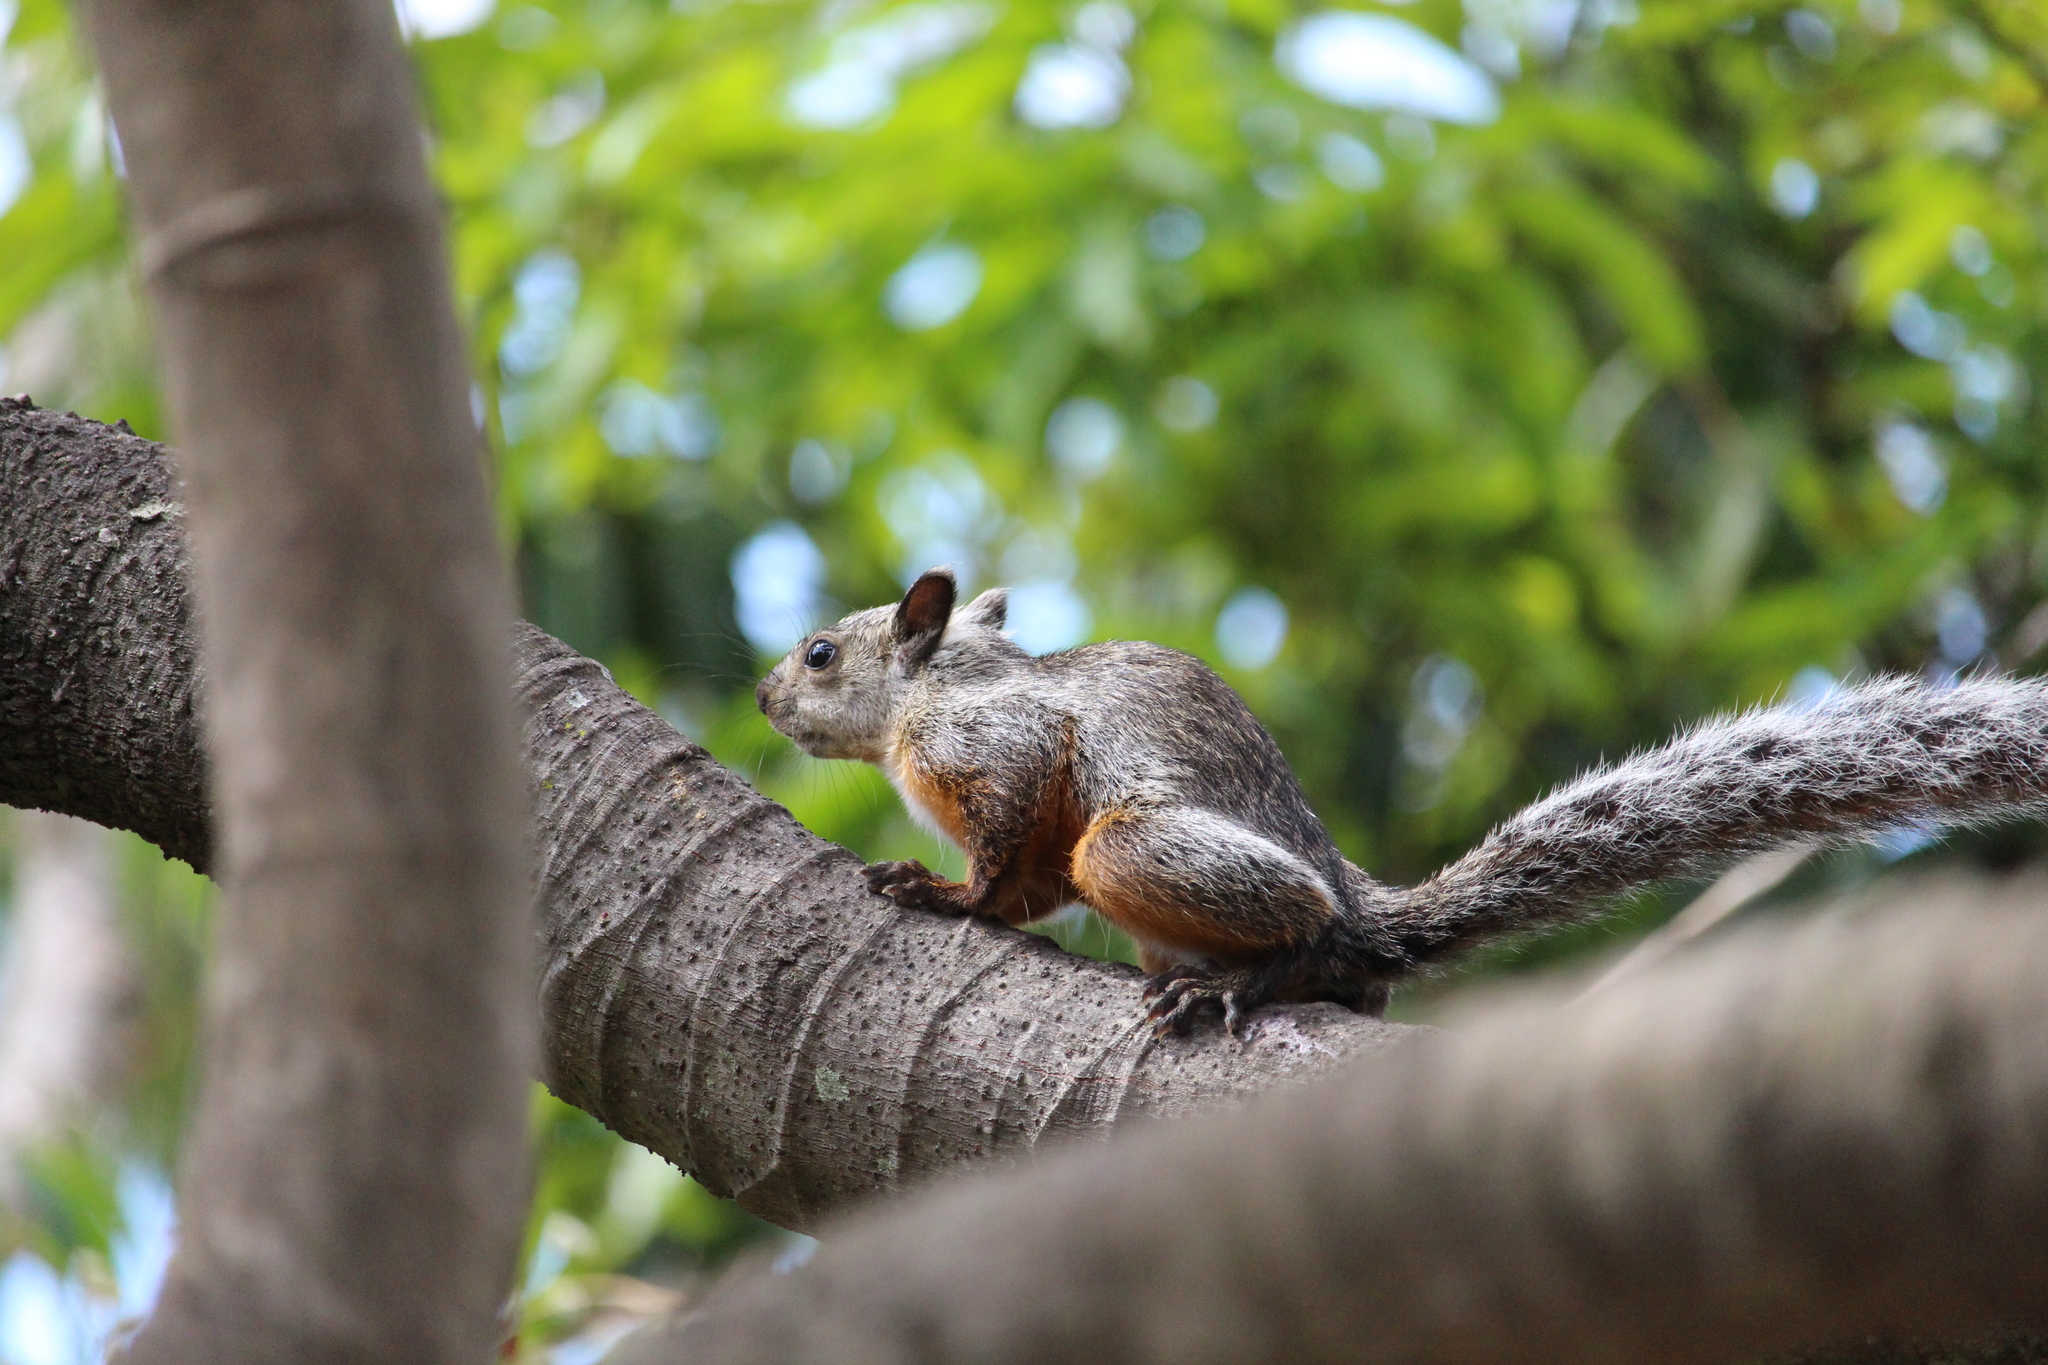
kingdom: Animalia
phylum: Chordata
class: Mammalia
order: Rodentia
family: Sciuridae
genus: Sciurus
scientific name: Sciurus variegatoides
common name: Variegated squirrel
